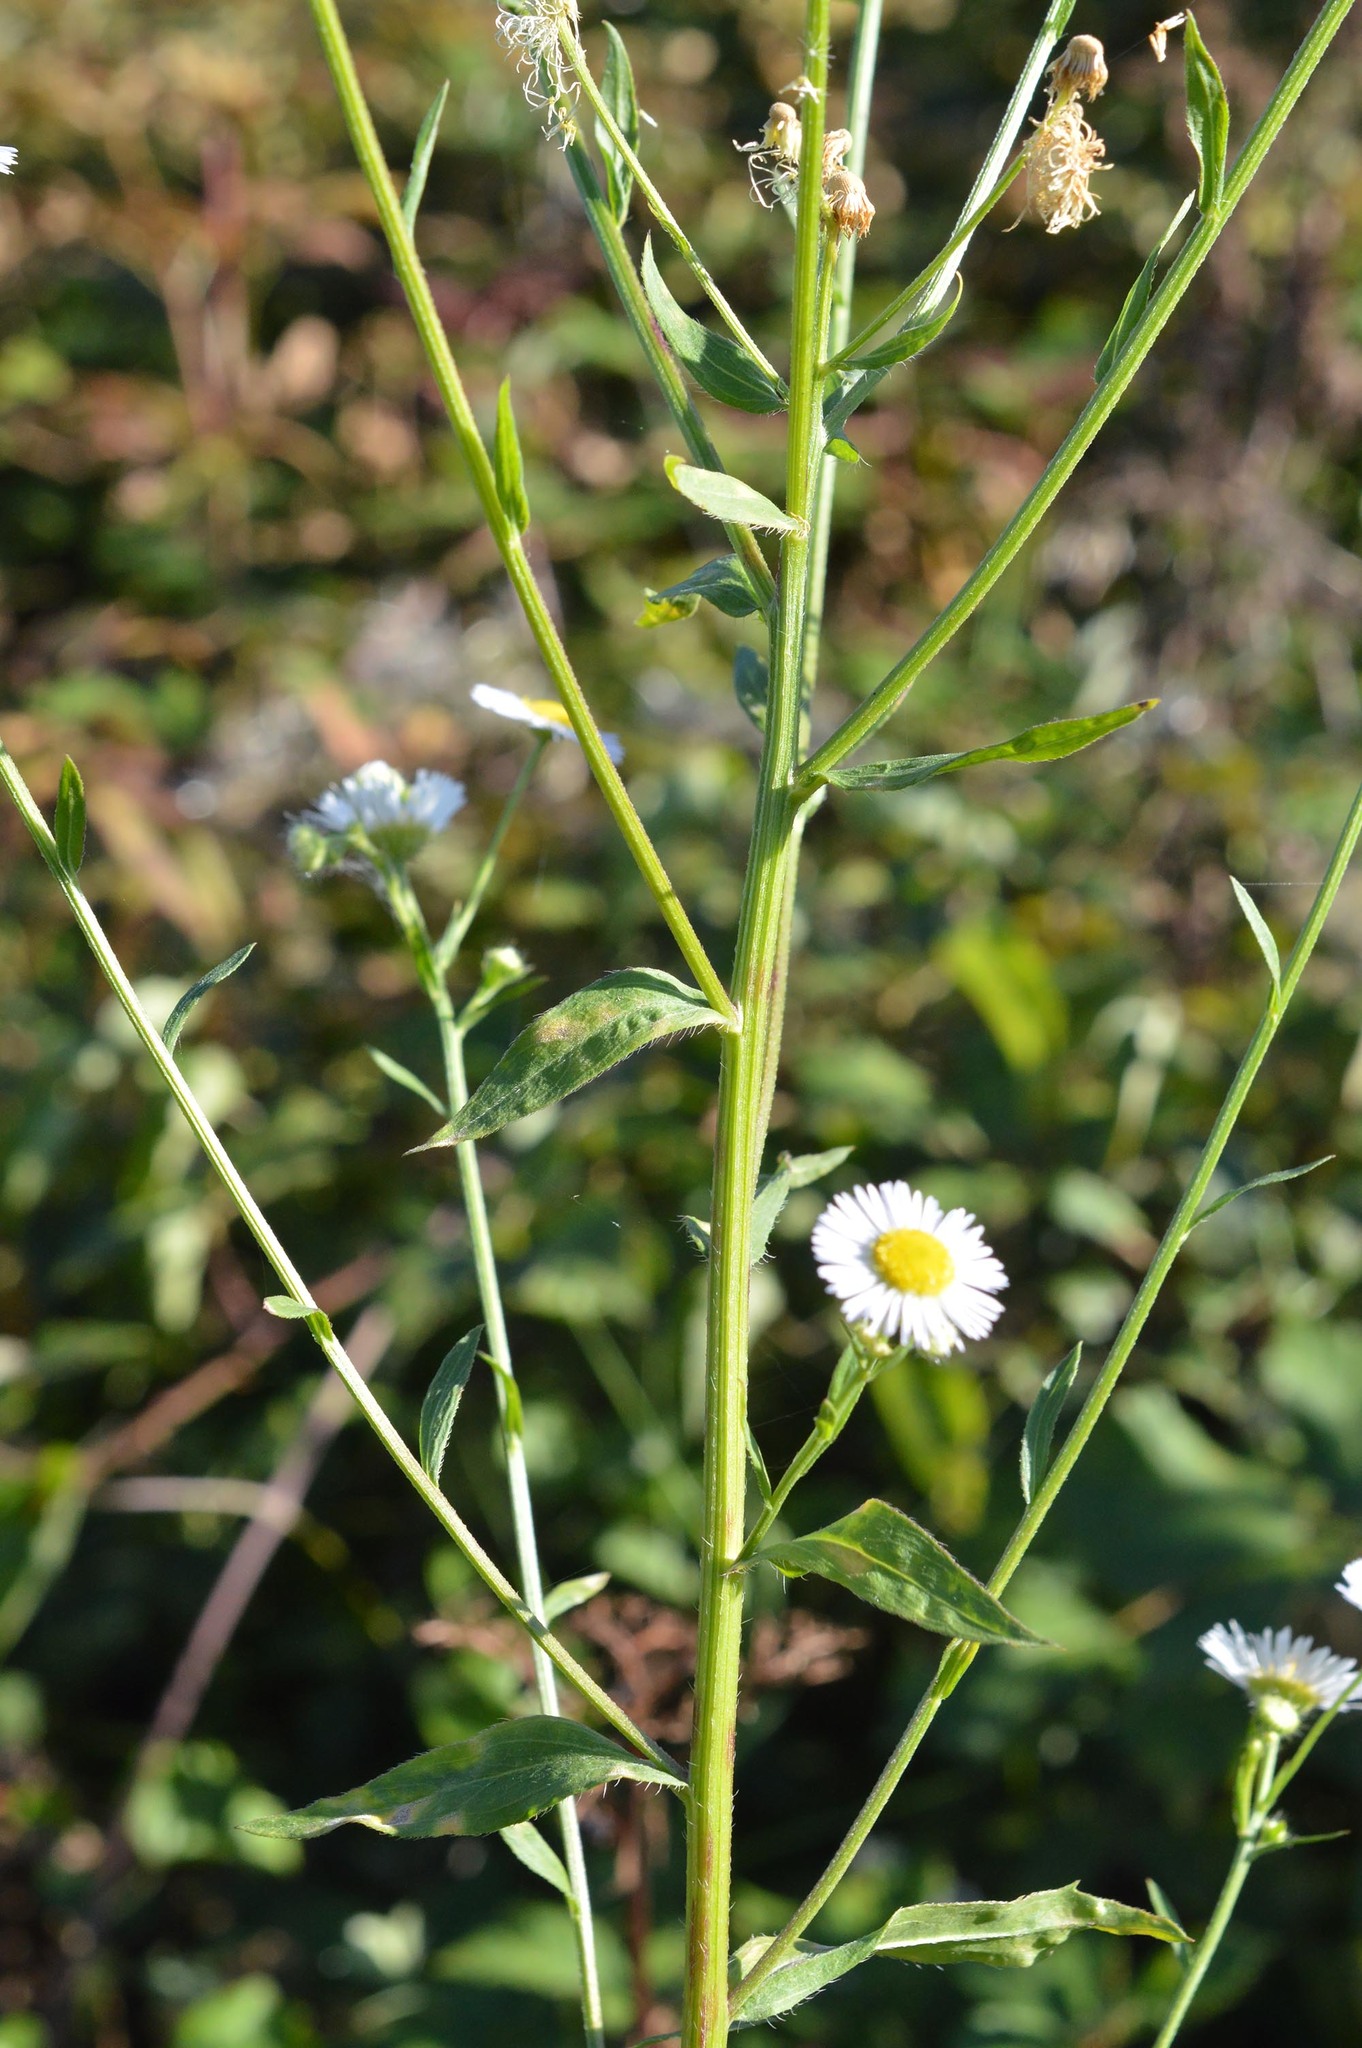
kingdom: Plantae
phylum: Tracheophyta
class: Magnoliopsida
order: Asterales
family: Asteraceae
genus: Erigeron
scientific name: Erigeron annuus
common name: Tall fleabane
